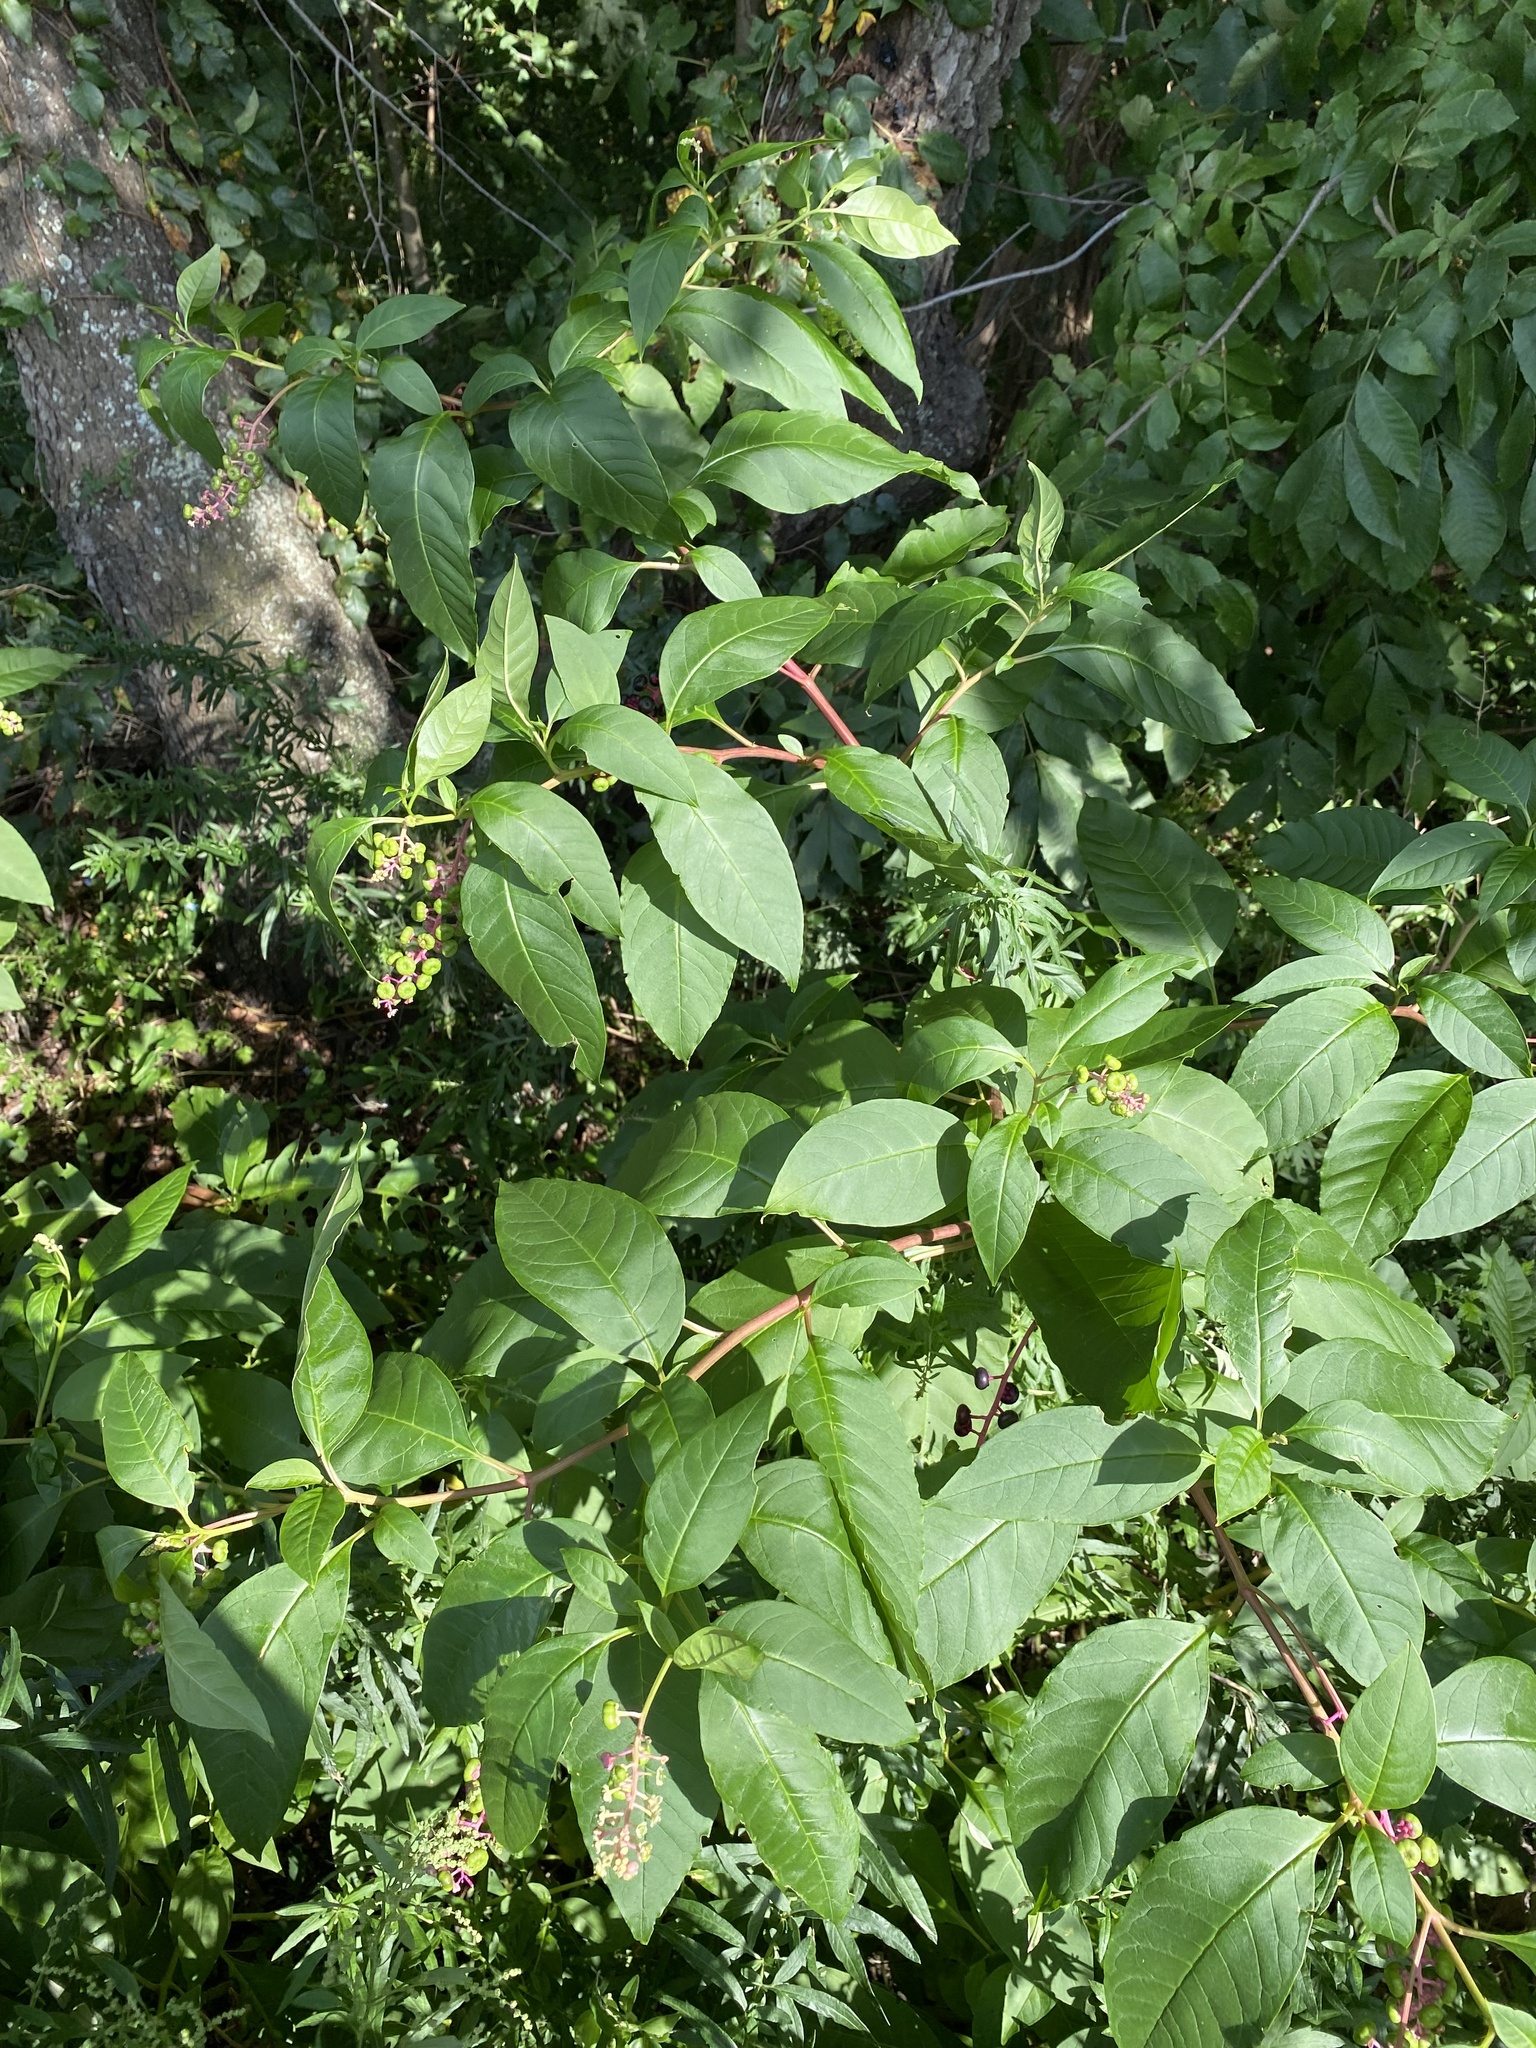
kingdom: Plantae
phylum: Tracheophyta
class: Magnoliopsida
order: Caryophyllales
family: Phytolaccaceae
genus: Phytolacca
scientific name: Phytolacca americana
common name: American pokeweed
